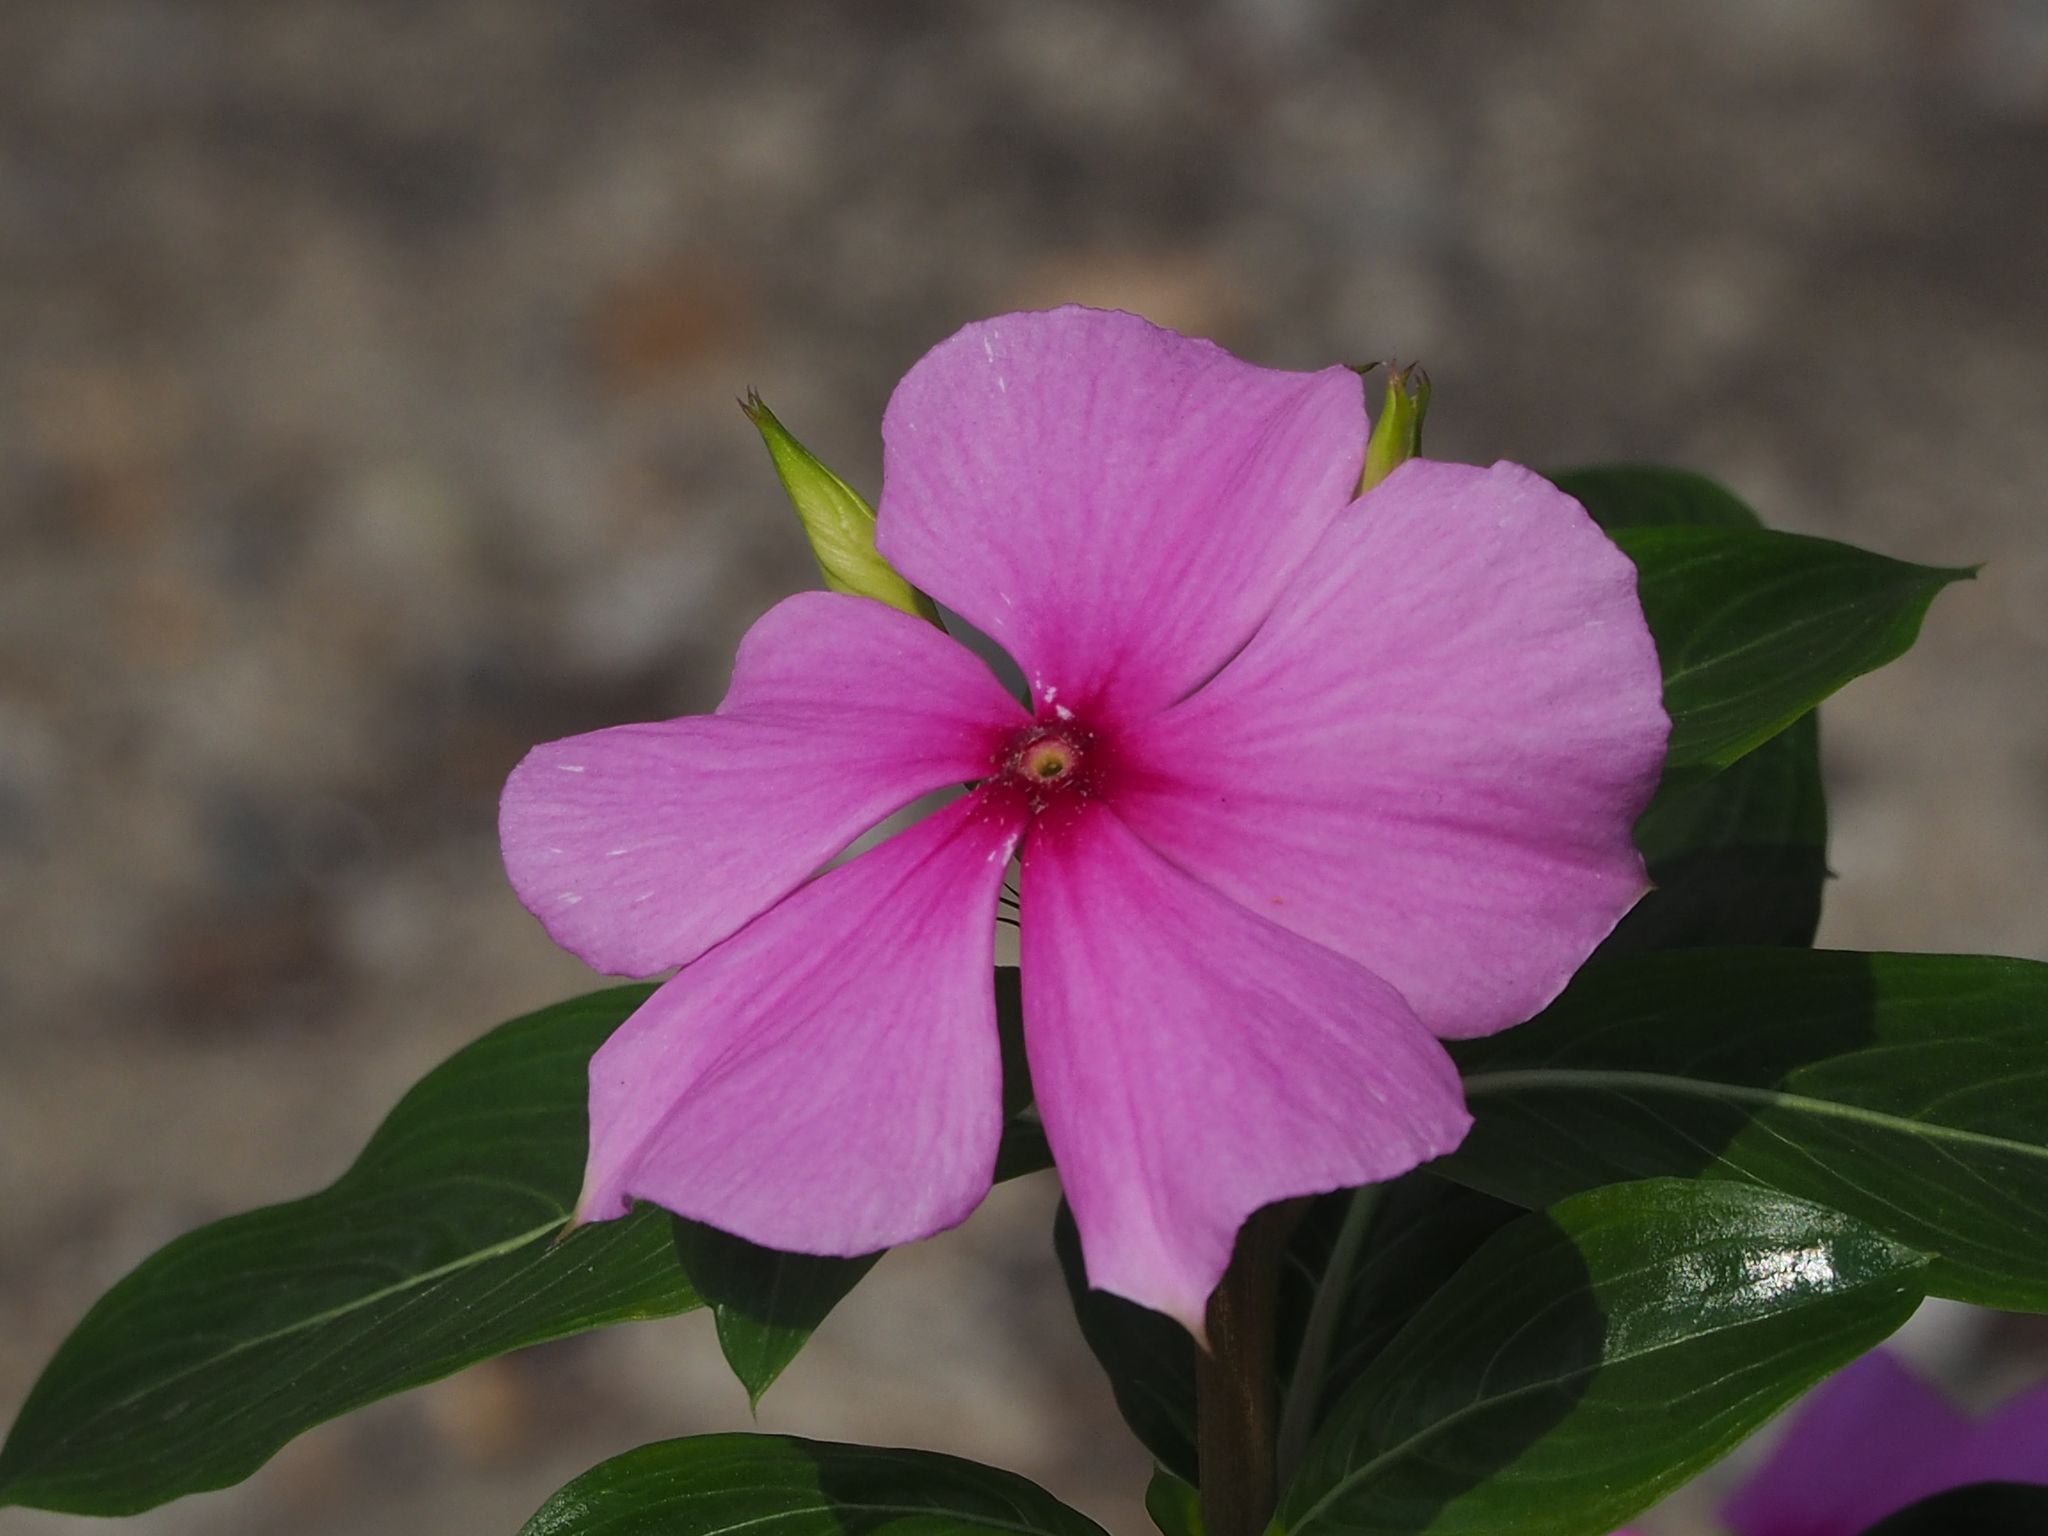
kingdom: Plantae
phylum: Tracheophyta
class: Magnoliopsida
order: Gentianales
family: Apocynaceae
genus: Catharanthus
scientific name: Catharanthus roseus
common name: Madagascar periwinkle
